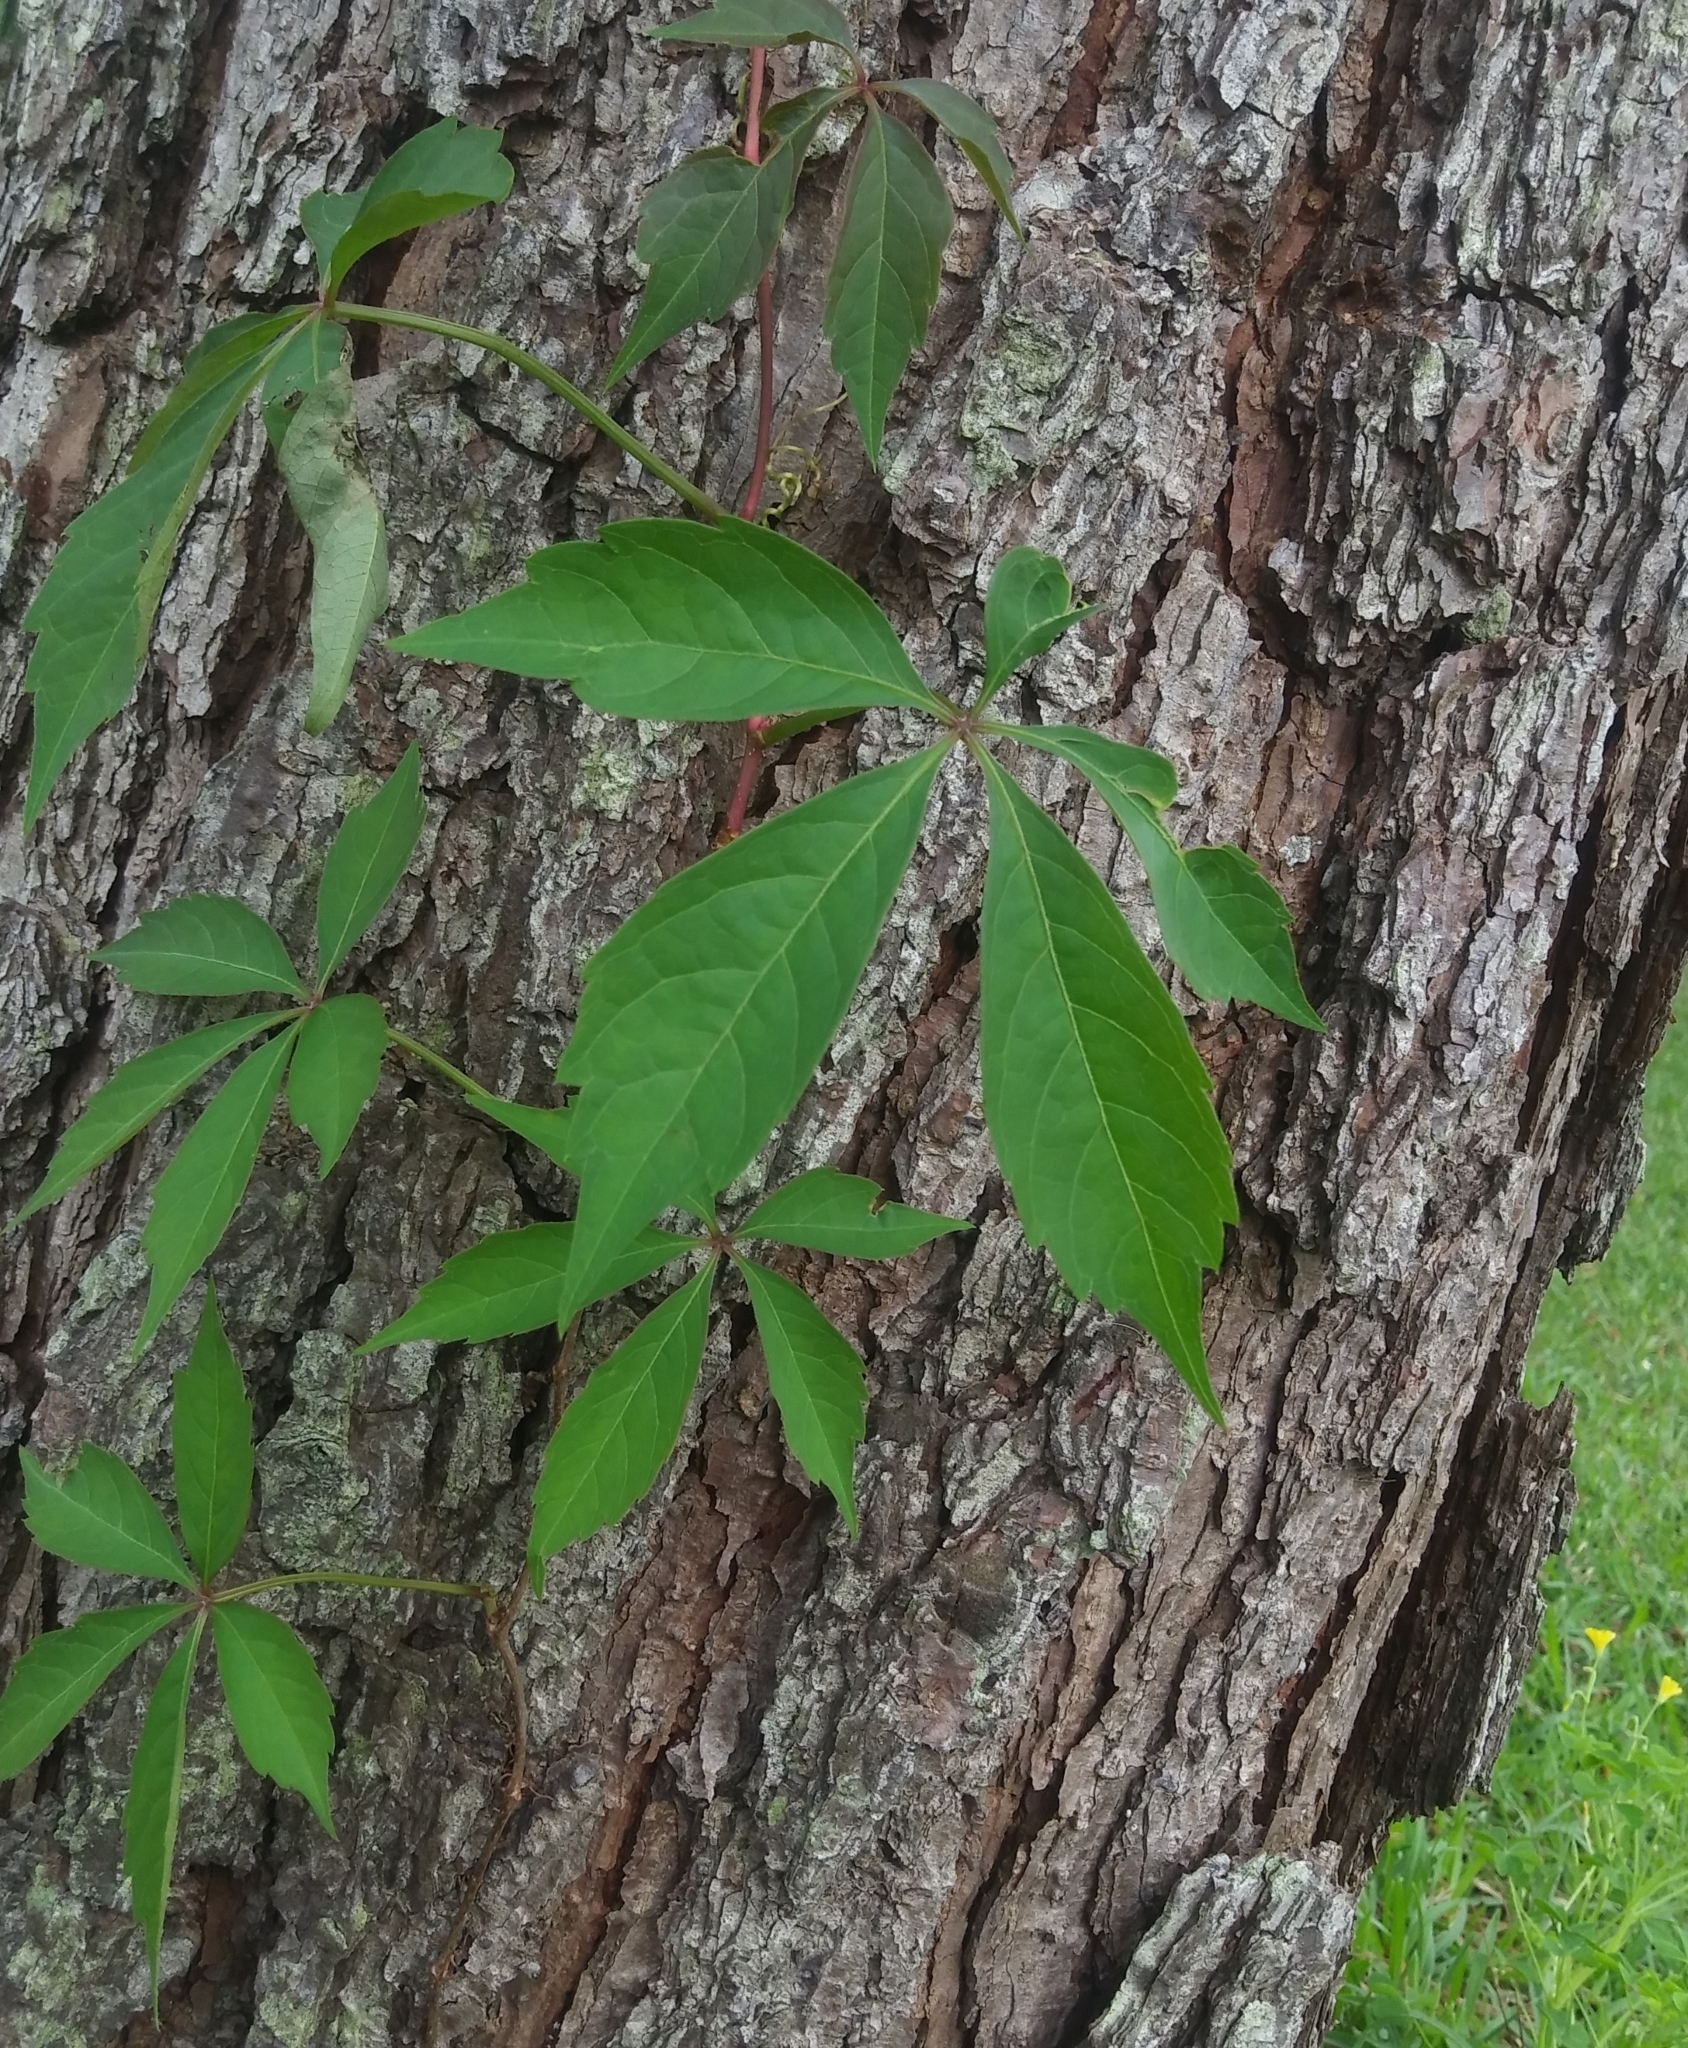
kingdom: Plantae
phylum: Tracheophyta
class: Magnoliopsida
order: Vitales
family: Vitaceae
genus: Parthenocissus
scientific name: Parthenocissus quinquefolia
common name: Virginia-creeper
